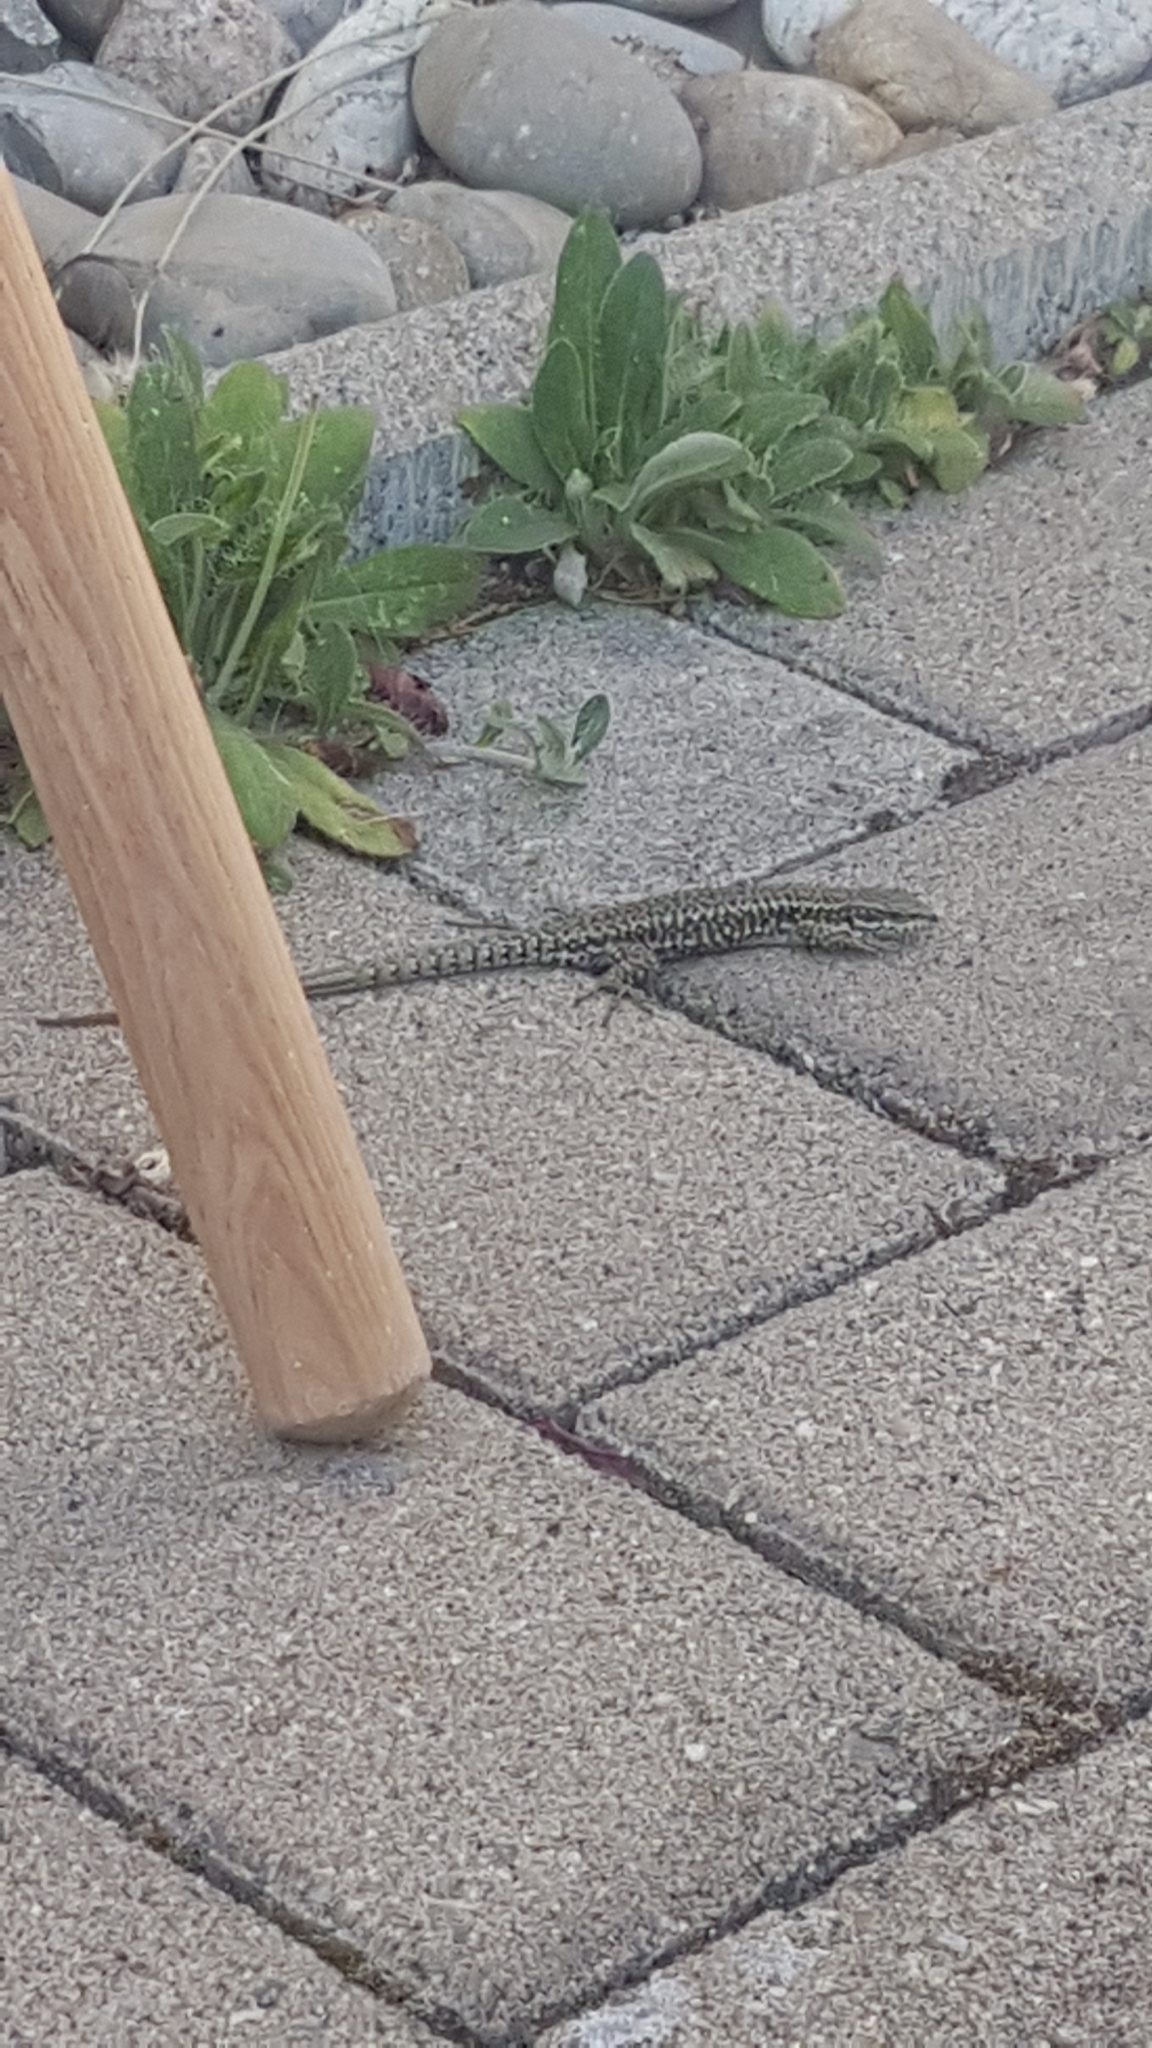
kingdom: Animalia
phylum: Chordata
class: Squamata
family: Lacertidae
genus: Podarcis
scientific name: Podarcis muralis
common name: Common wall lizard
